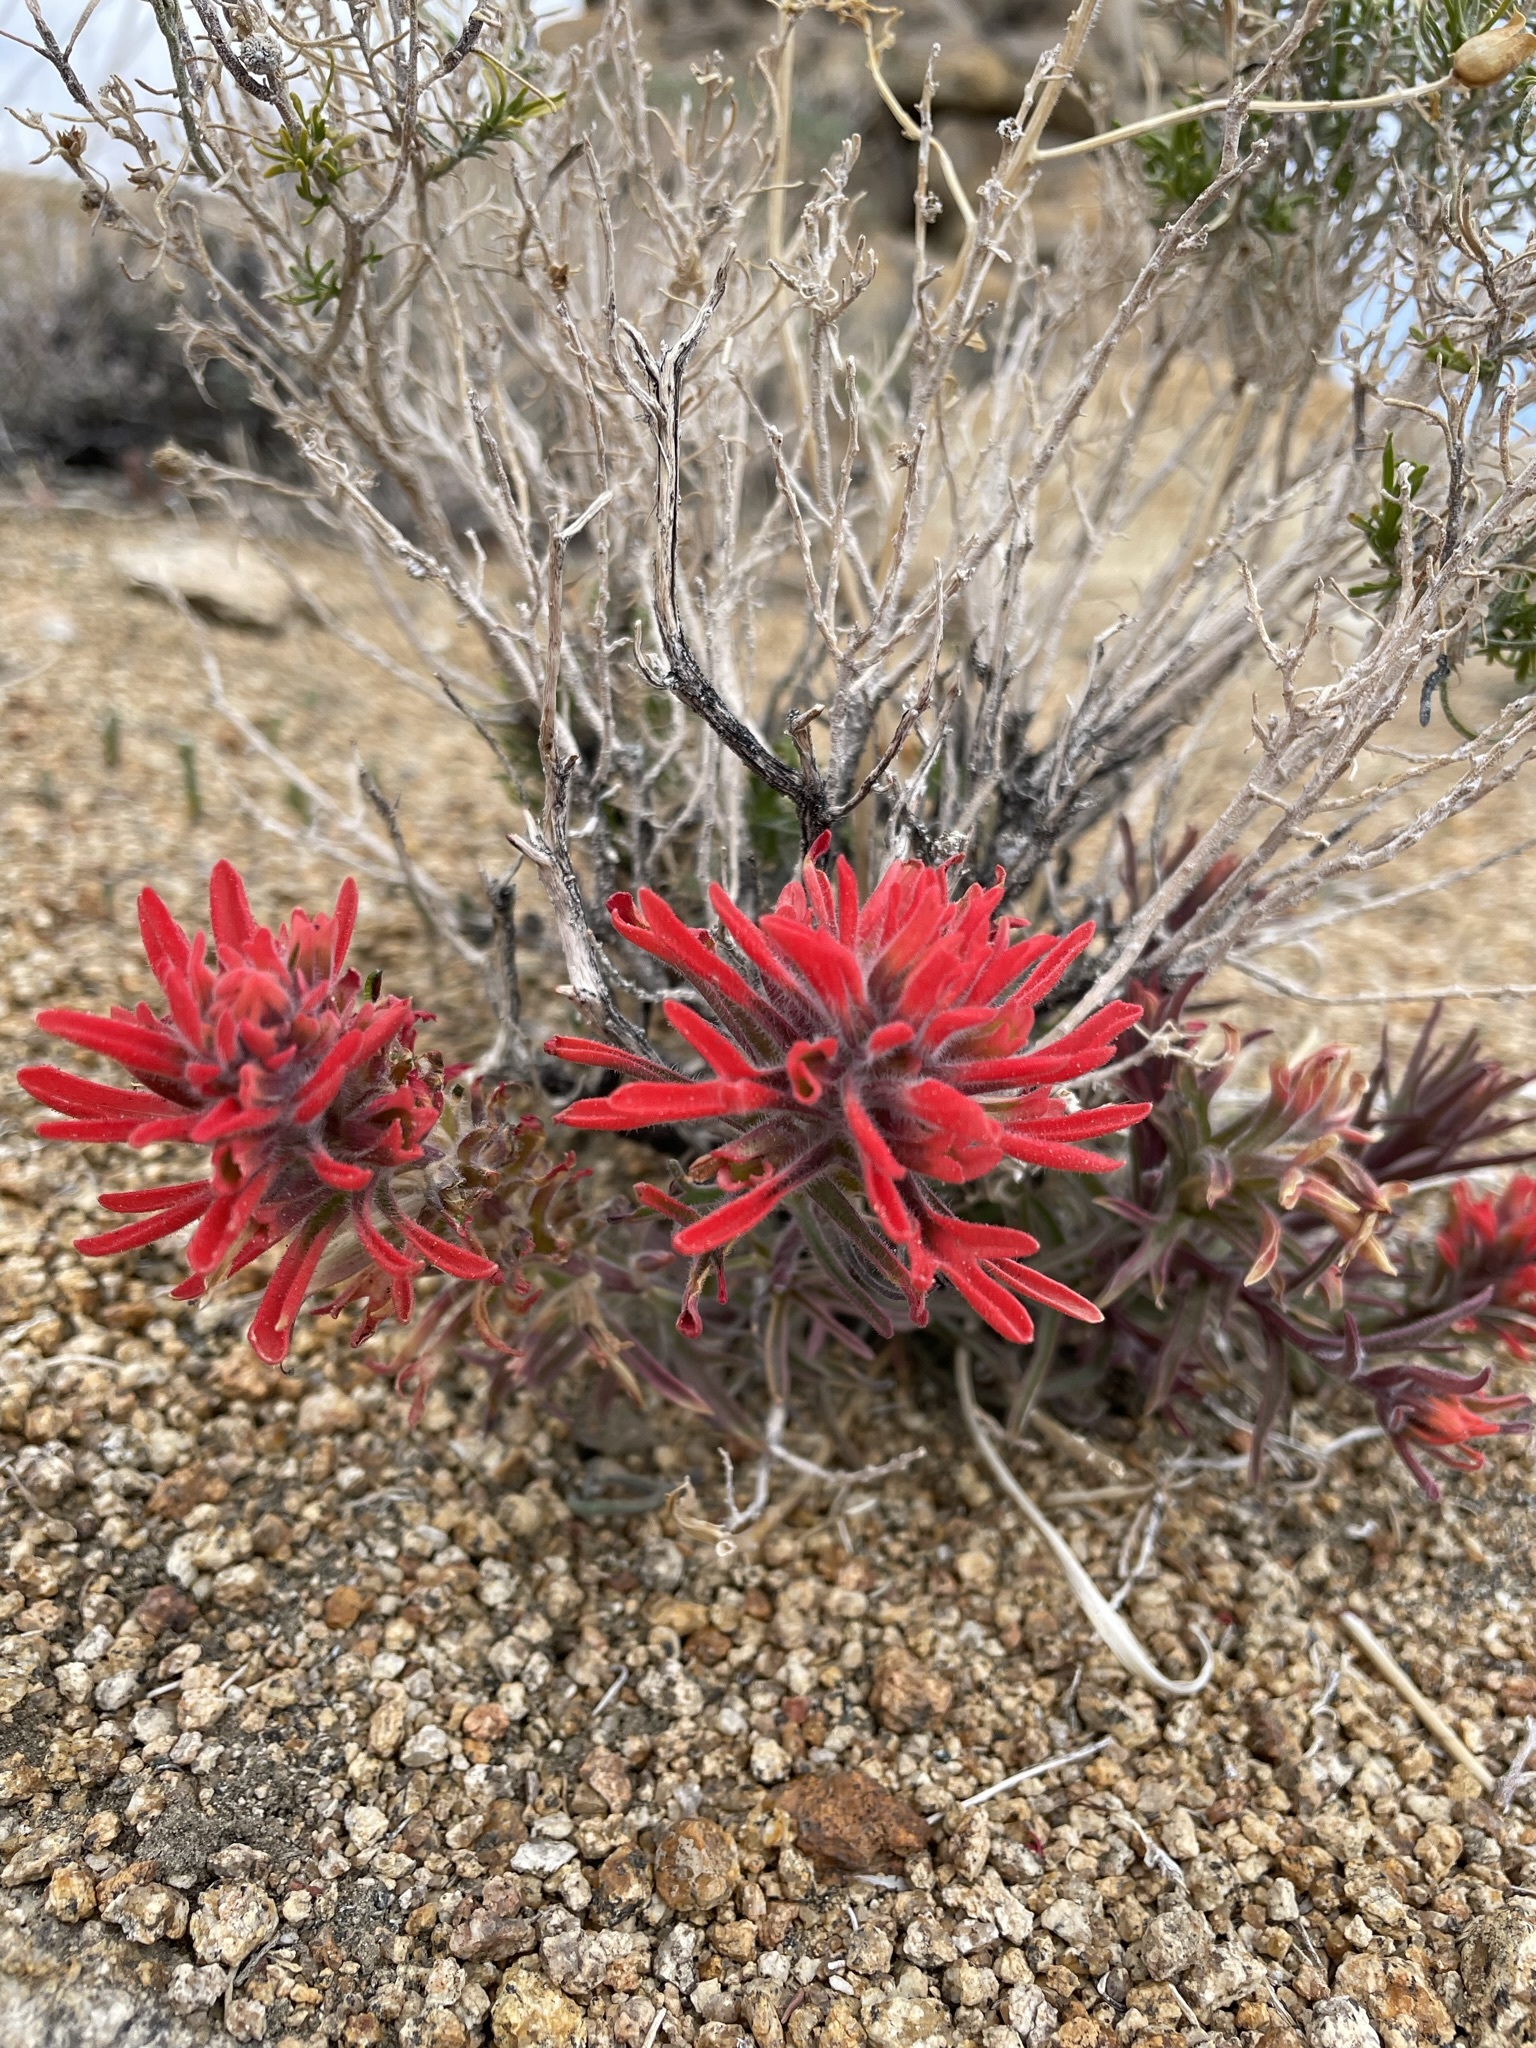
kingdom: Plantae
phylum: Tracheophyta
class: Magnoliopsida
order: Lamiales
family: Orobanchaceae
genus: Castilleja
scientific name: Castilleja chromosa
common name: Desert paintbrush
